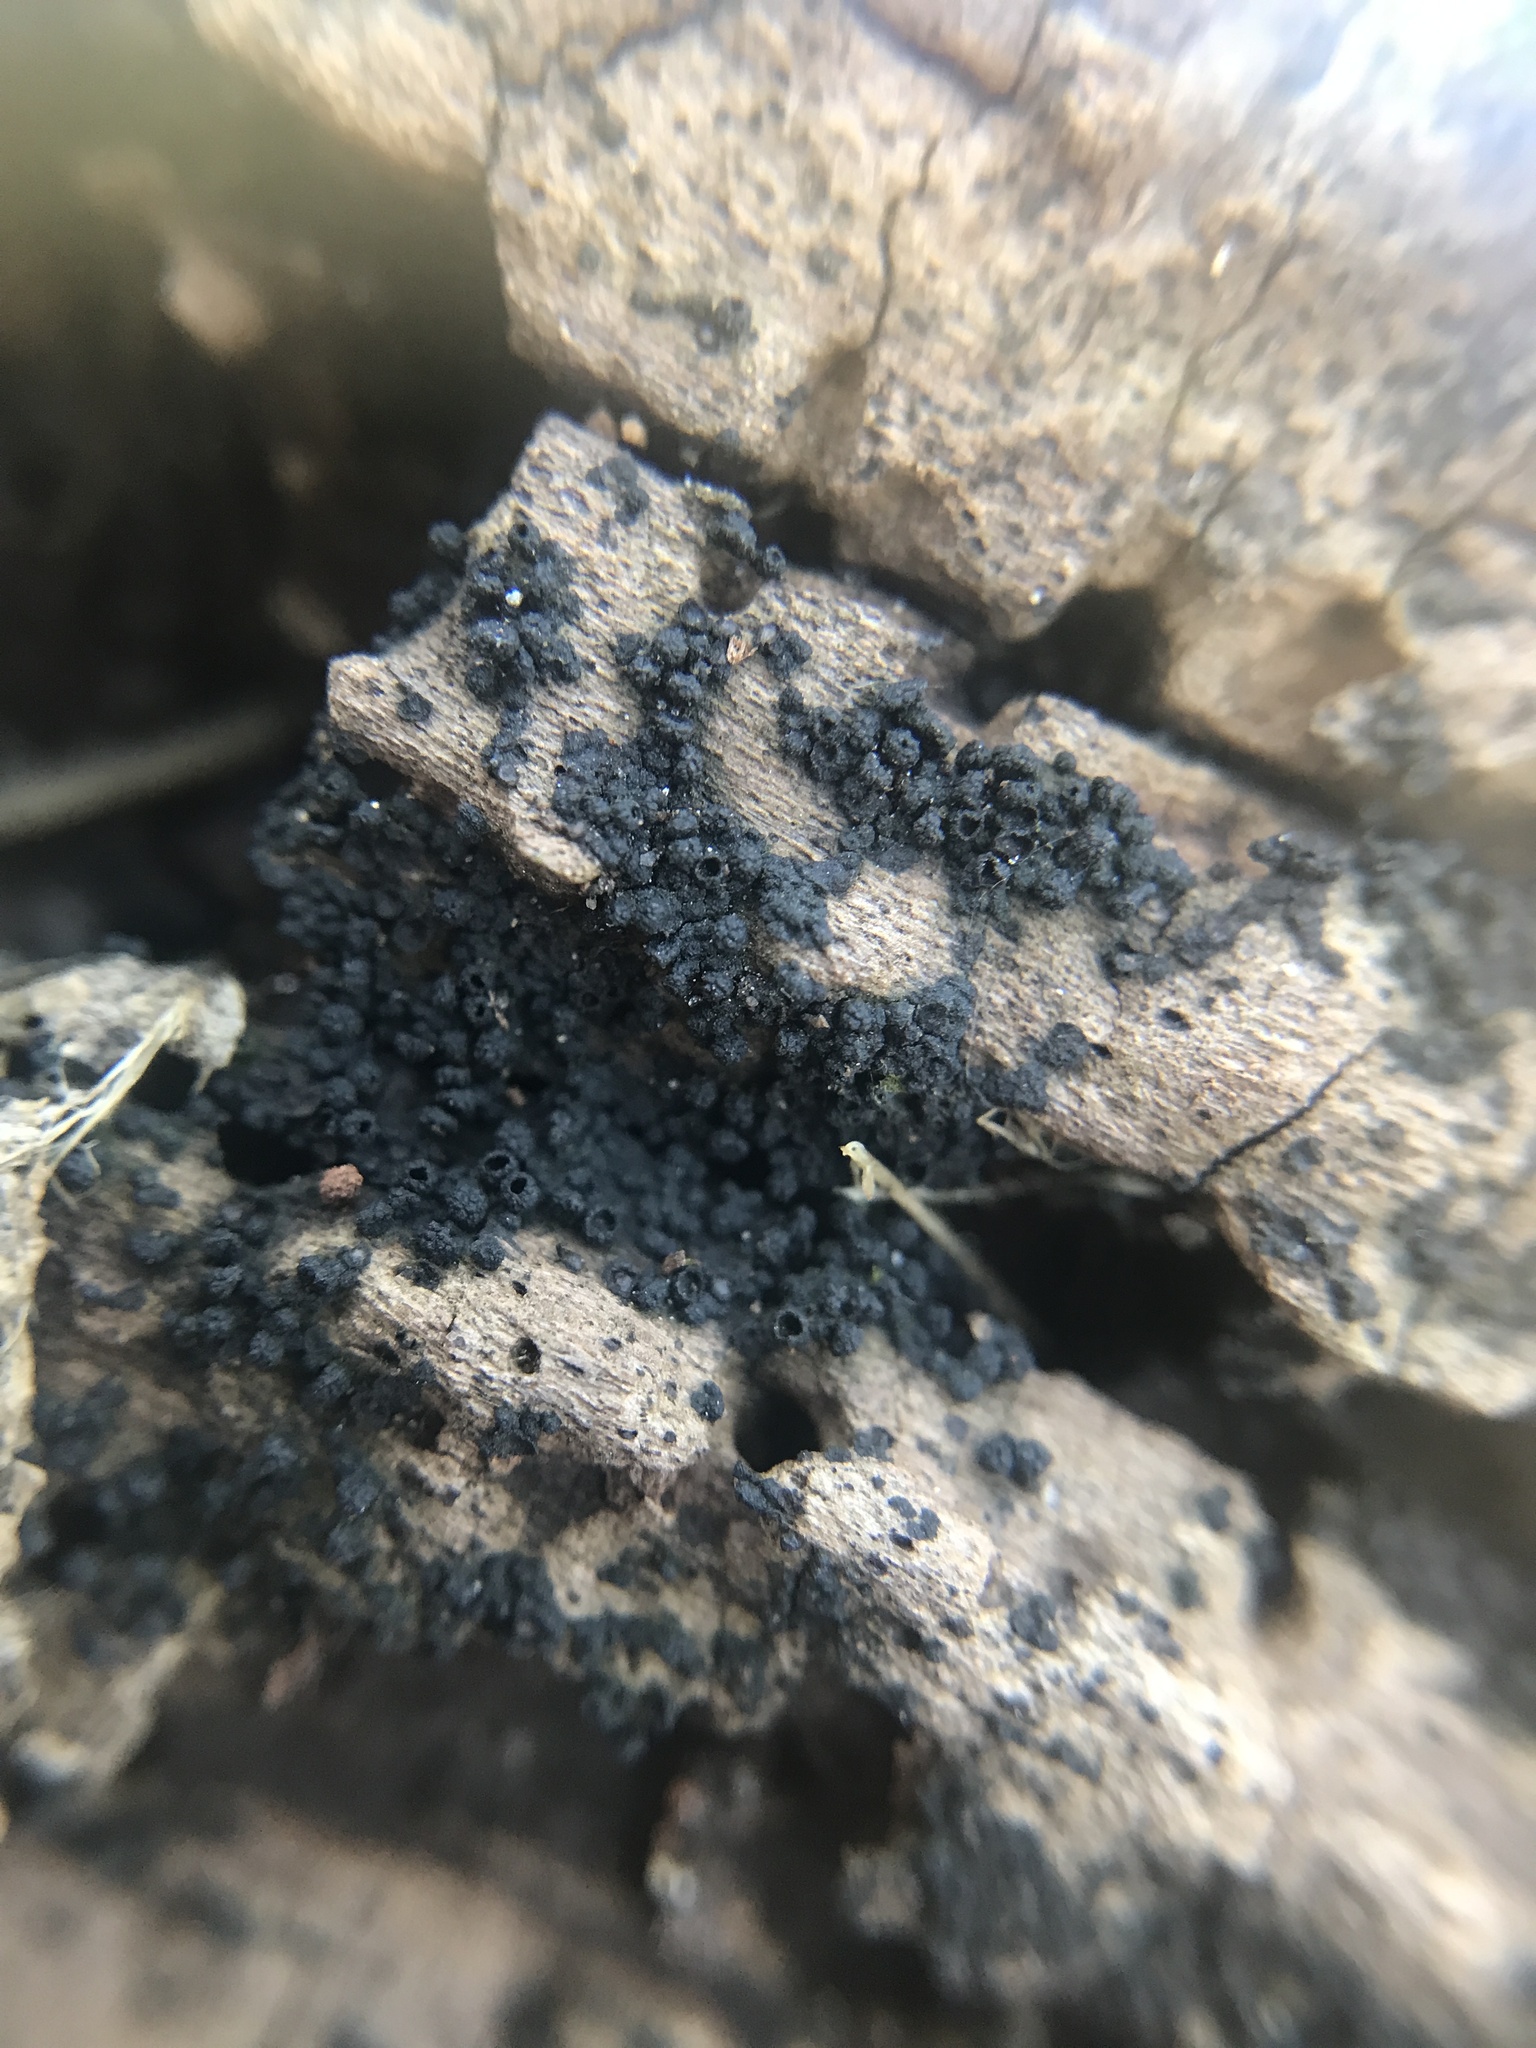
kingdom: Fungi
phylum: Ascomycota
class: Sordariomycetes
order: Coronophorales
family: Bertiaceae
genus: Bertia
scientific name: Bertia moriformis
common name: Wood mulberry
